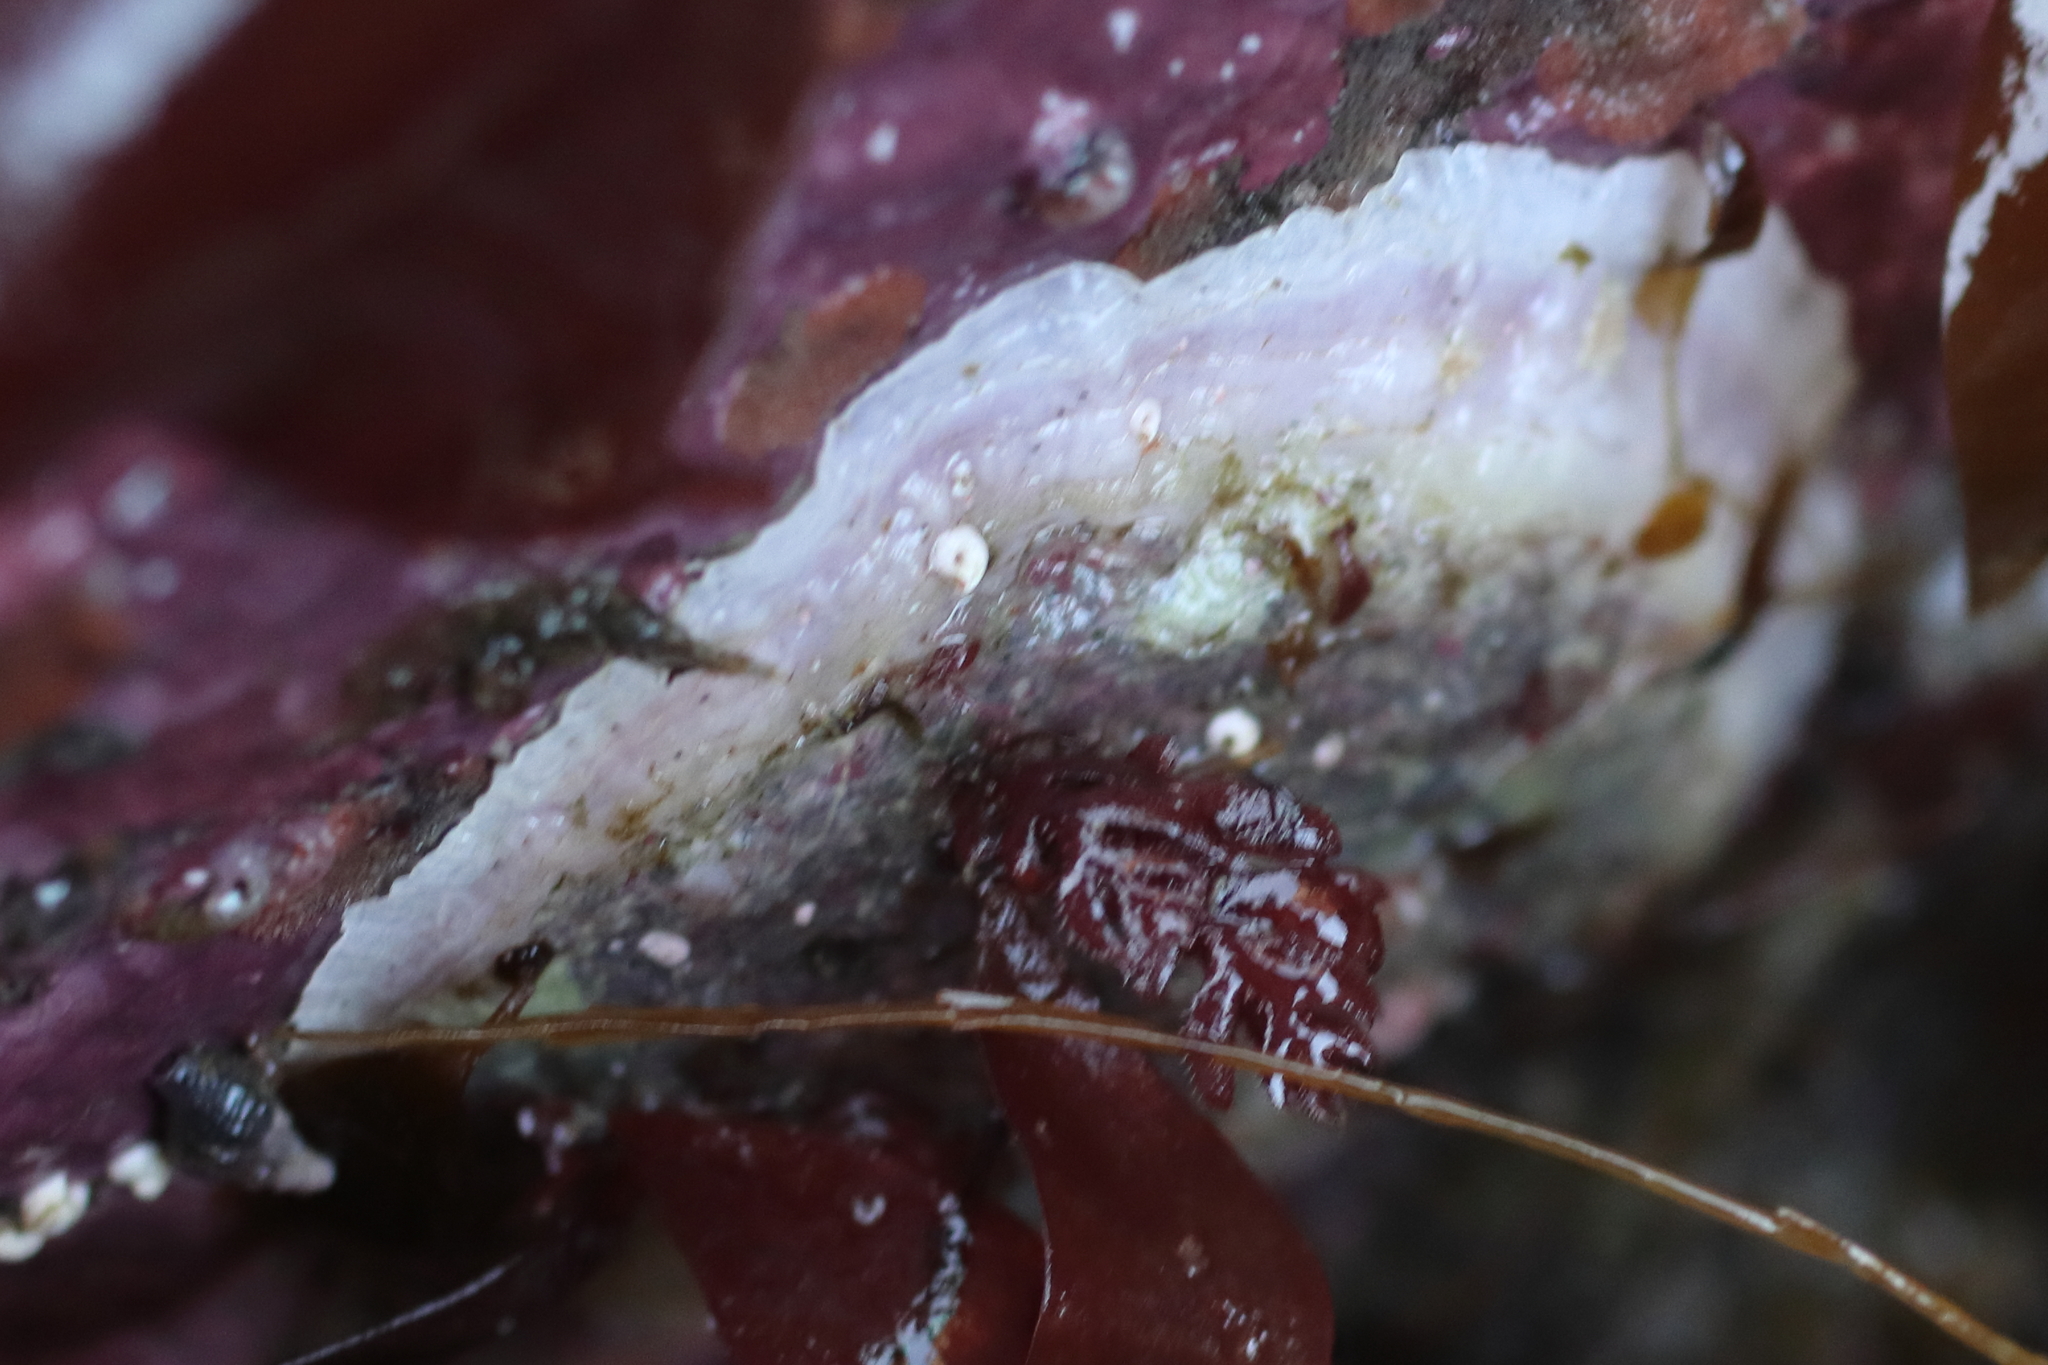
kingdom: Animalia
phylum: Mollusca
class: Bivalvia
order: Pectinida
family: Anomiidae
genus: Pododesmus
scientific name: Pododesmus macrochisma
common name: Alaska jingle
